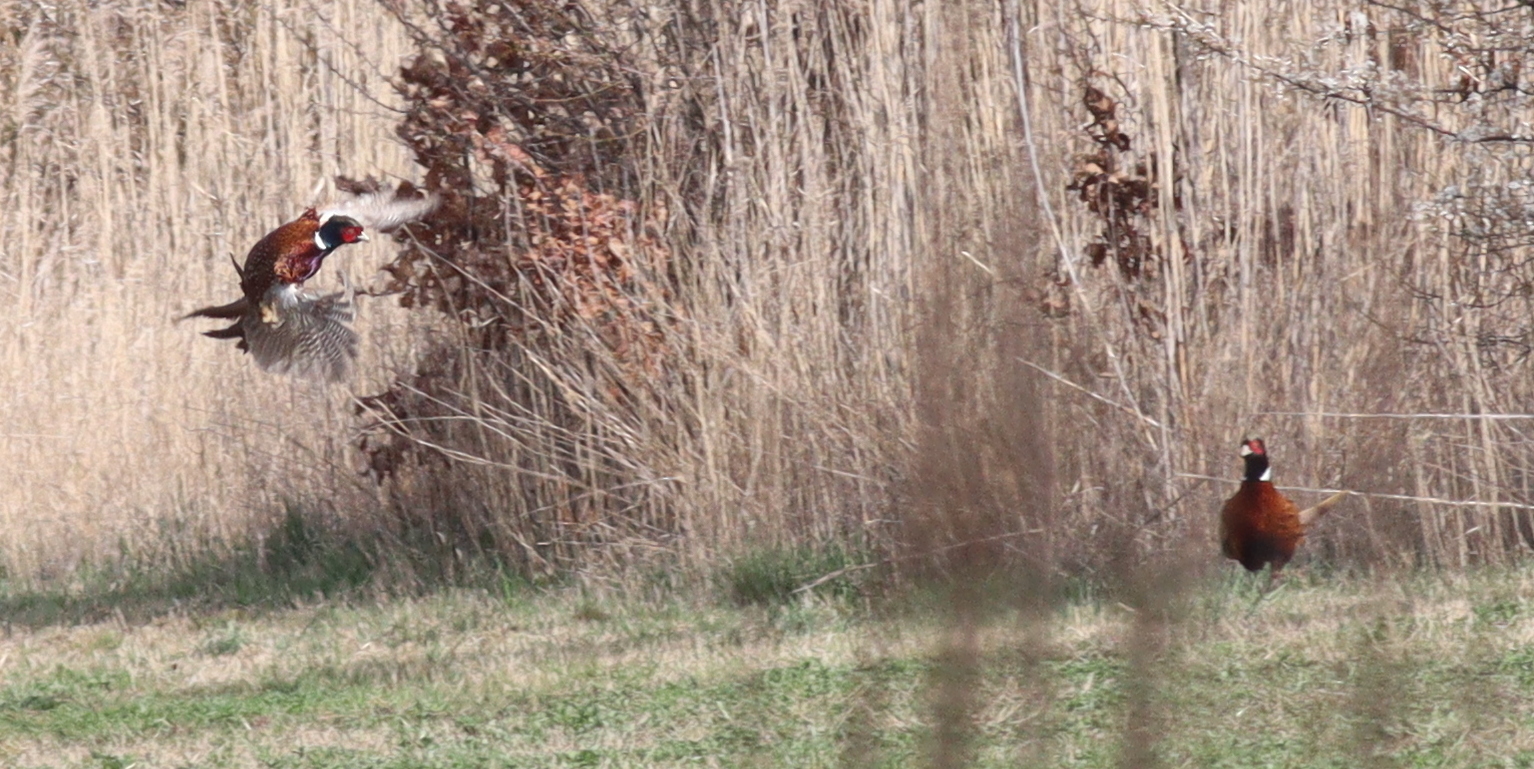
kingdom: Animalia
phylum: Chordata
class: Aves
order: Galliformes
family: Phasianidae
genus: Phasianus
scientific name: Phasianus colchicus
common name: Common pheasant
